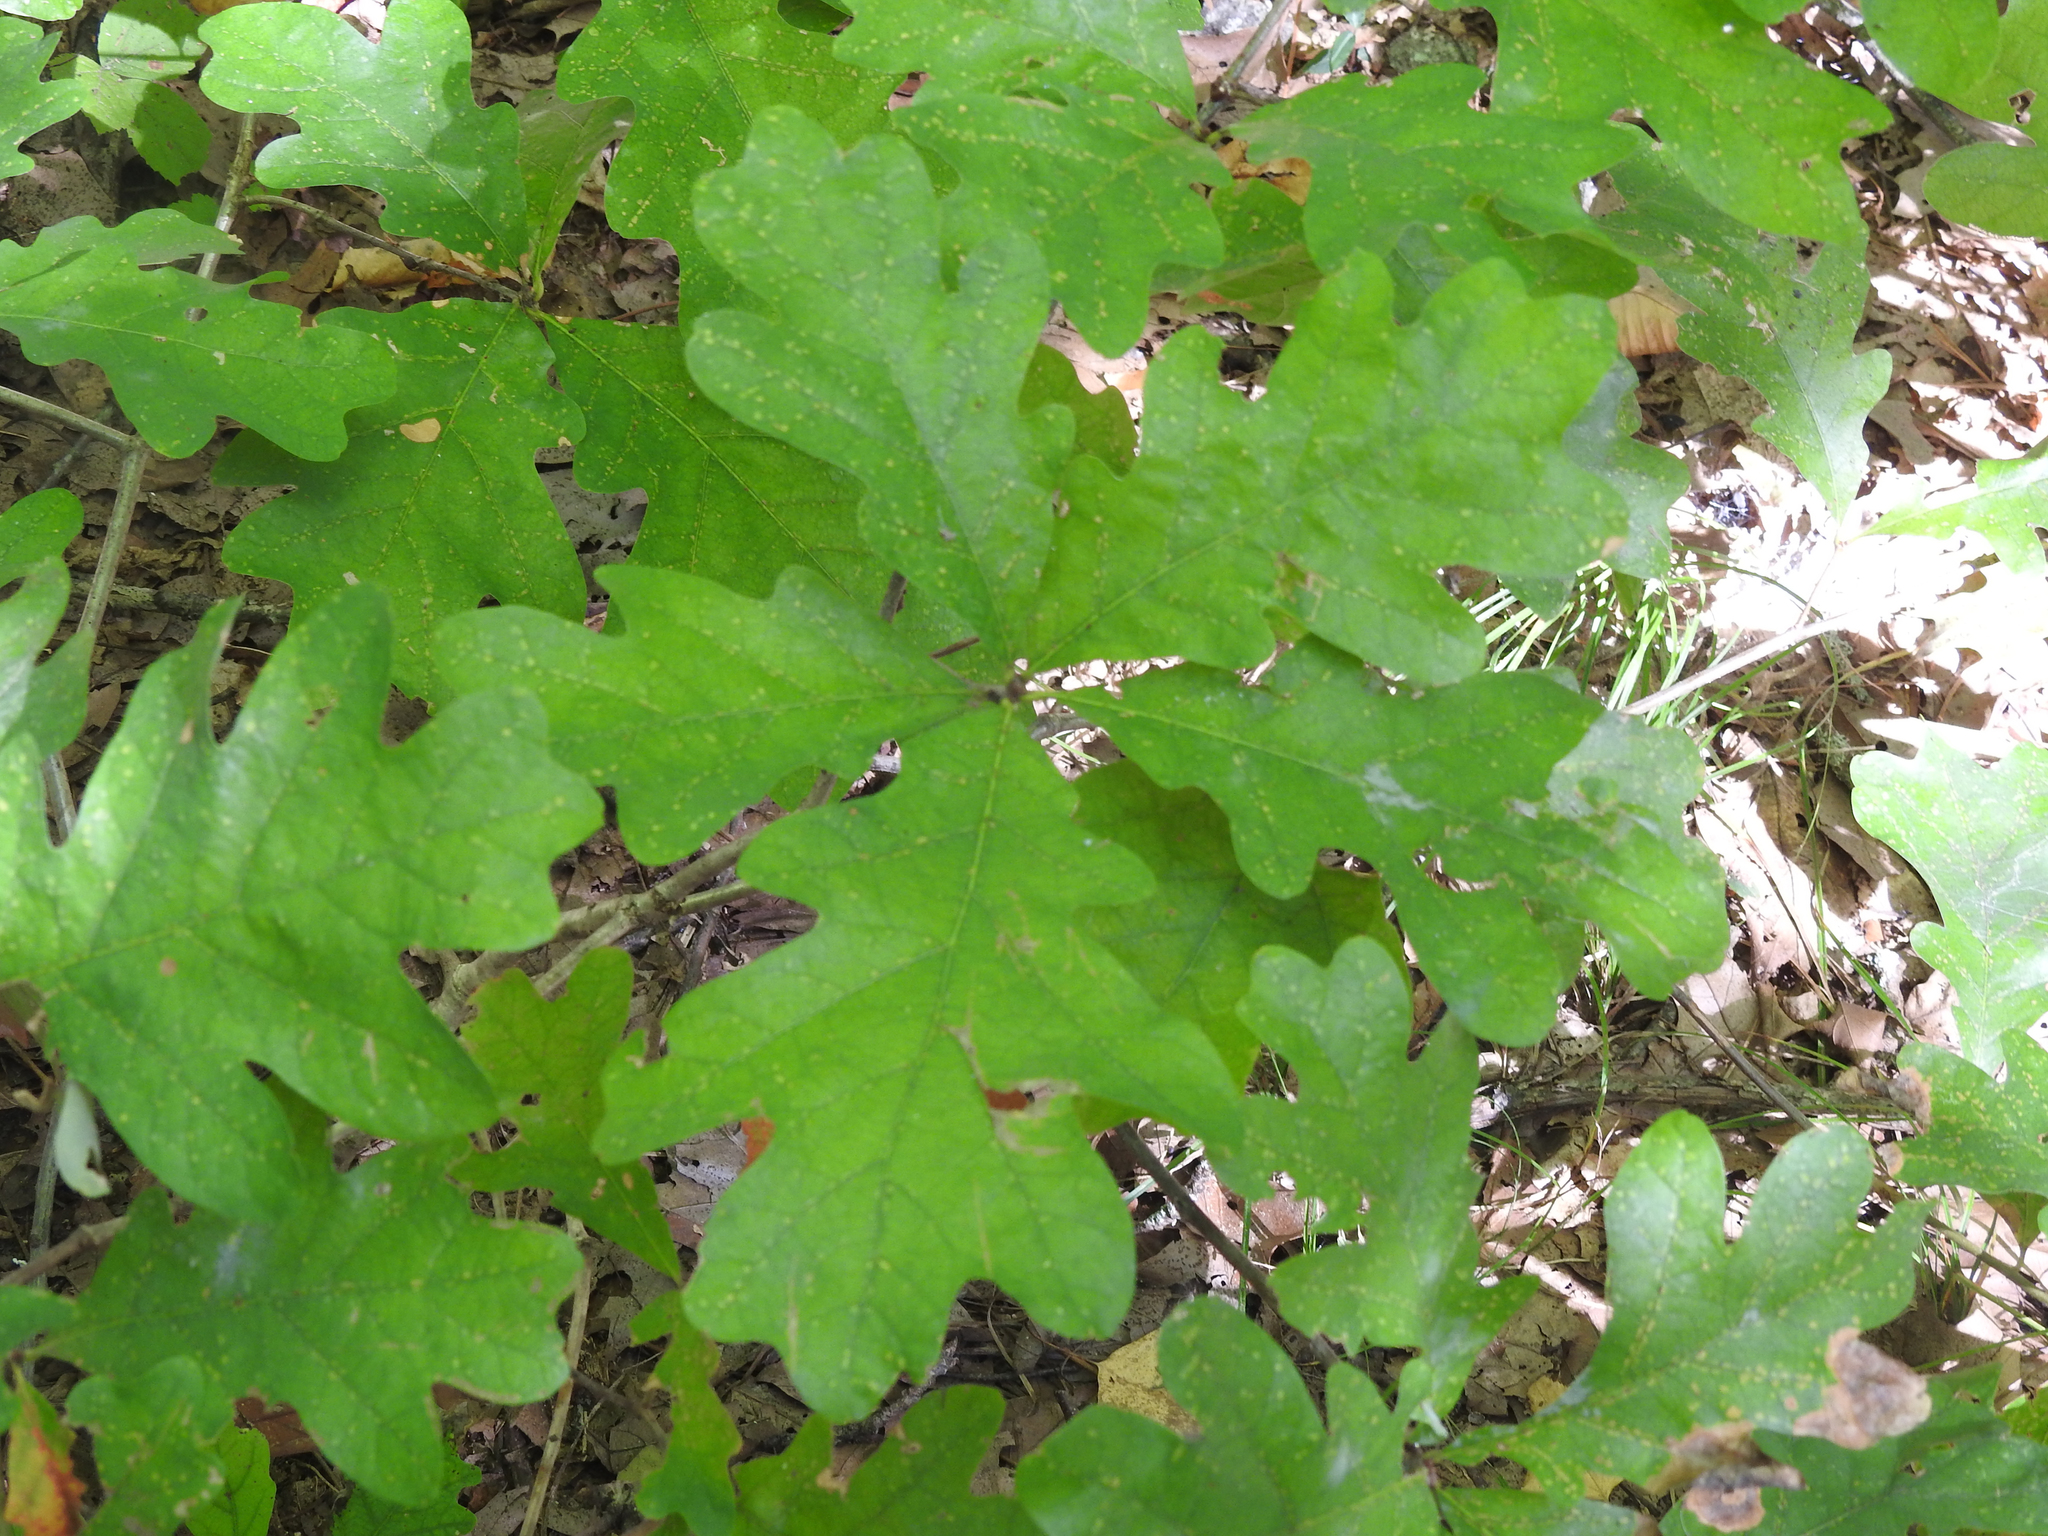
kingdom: Plantae
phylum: Tracheophyta
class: Magnoliopsida
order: Fagales
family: Fagaceae
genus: Quercus
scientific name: Quercus alba
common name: White oak
